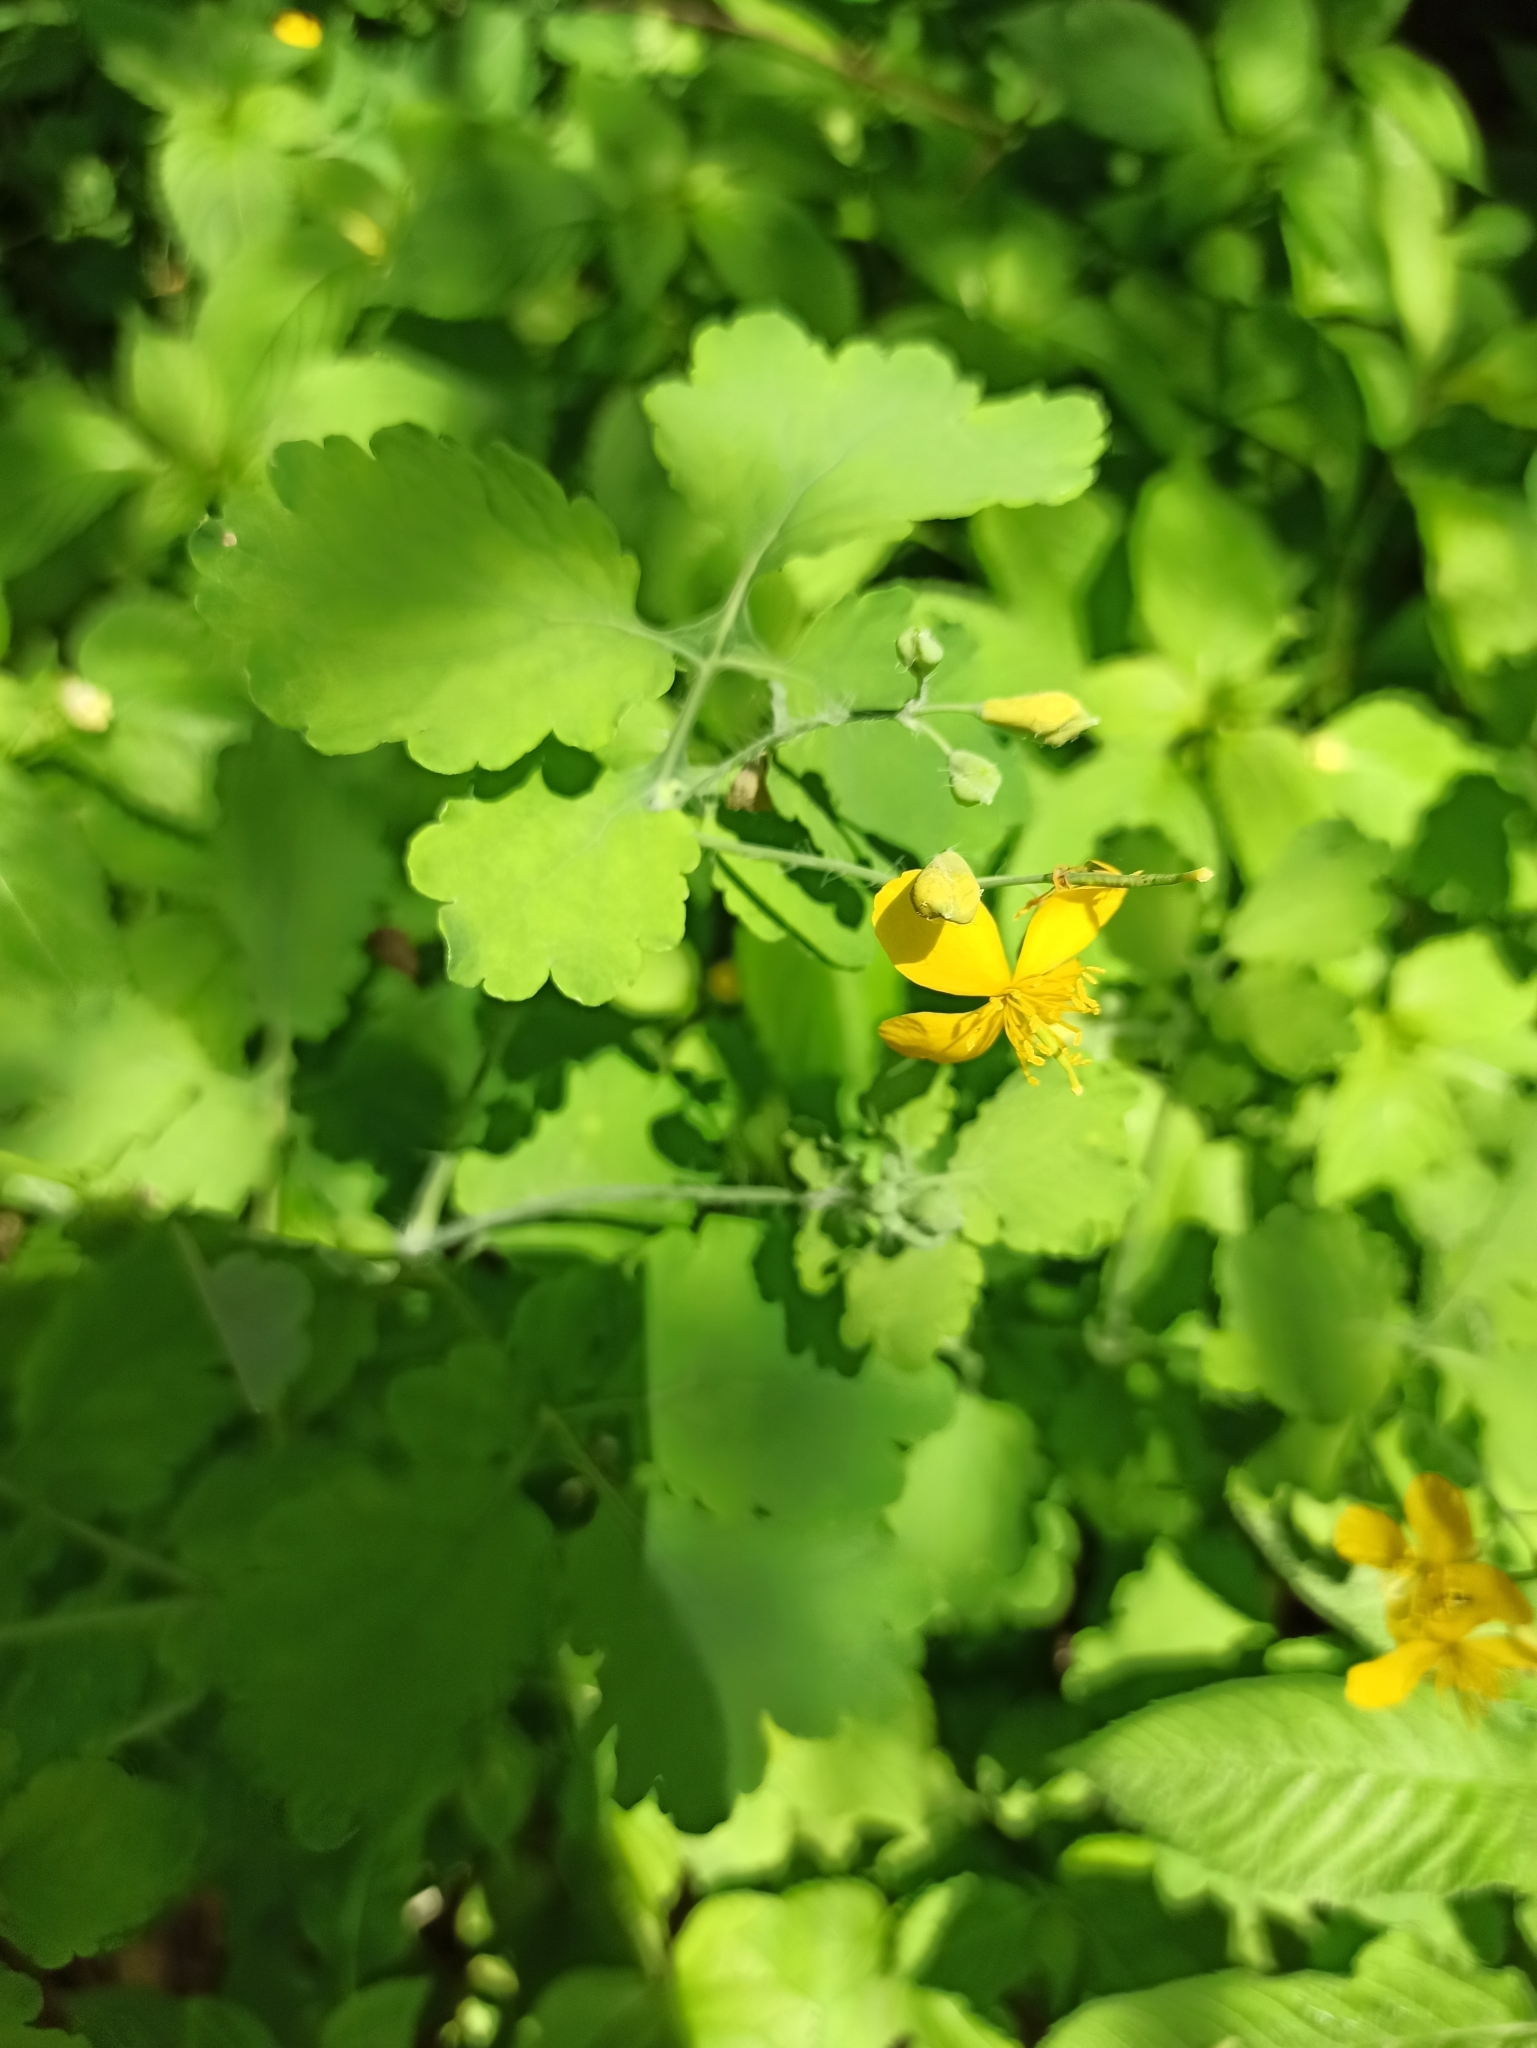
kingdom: Plantae
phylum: Tracheophyta
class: Magnoliopsida
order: Ranunculales
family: Papaveraceae
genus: Chelidonium
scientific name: Chelidonium majus
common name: Greater celandine
